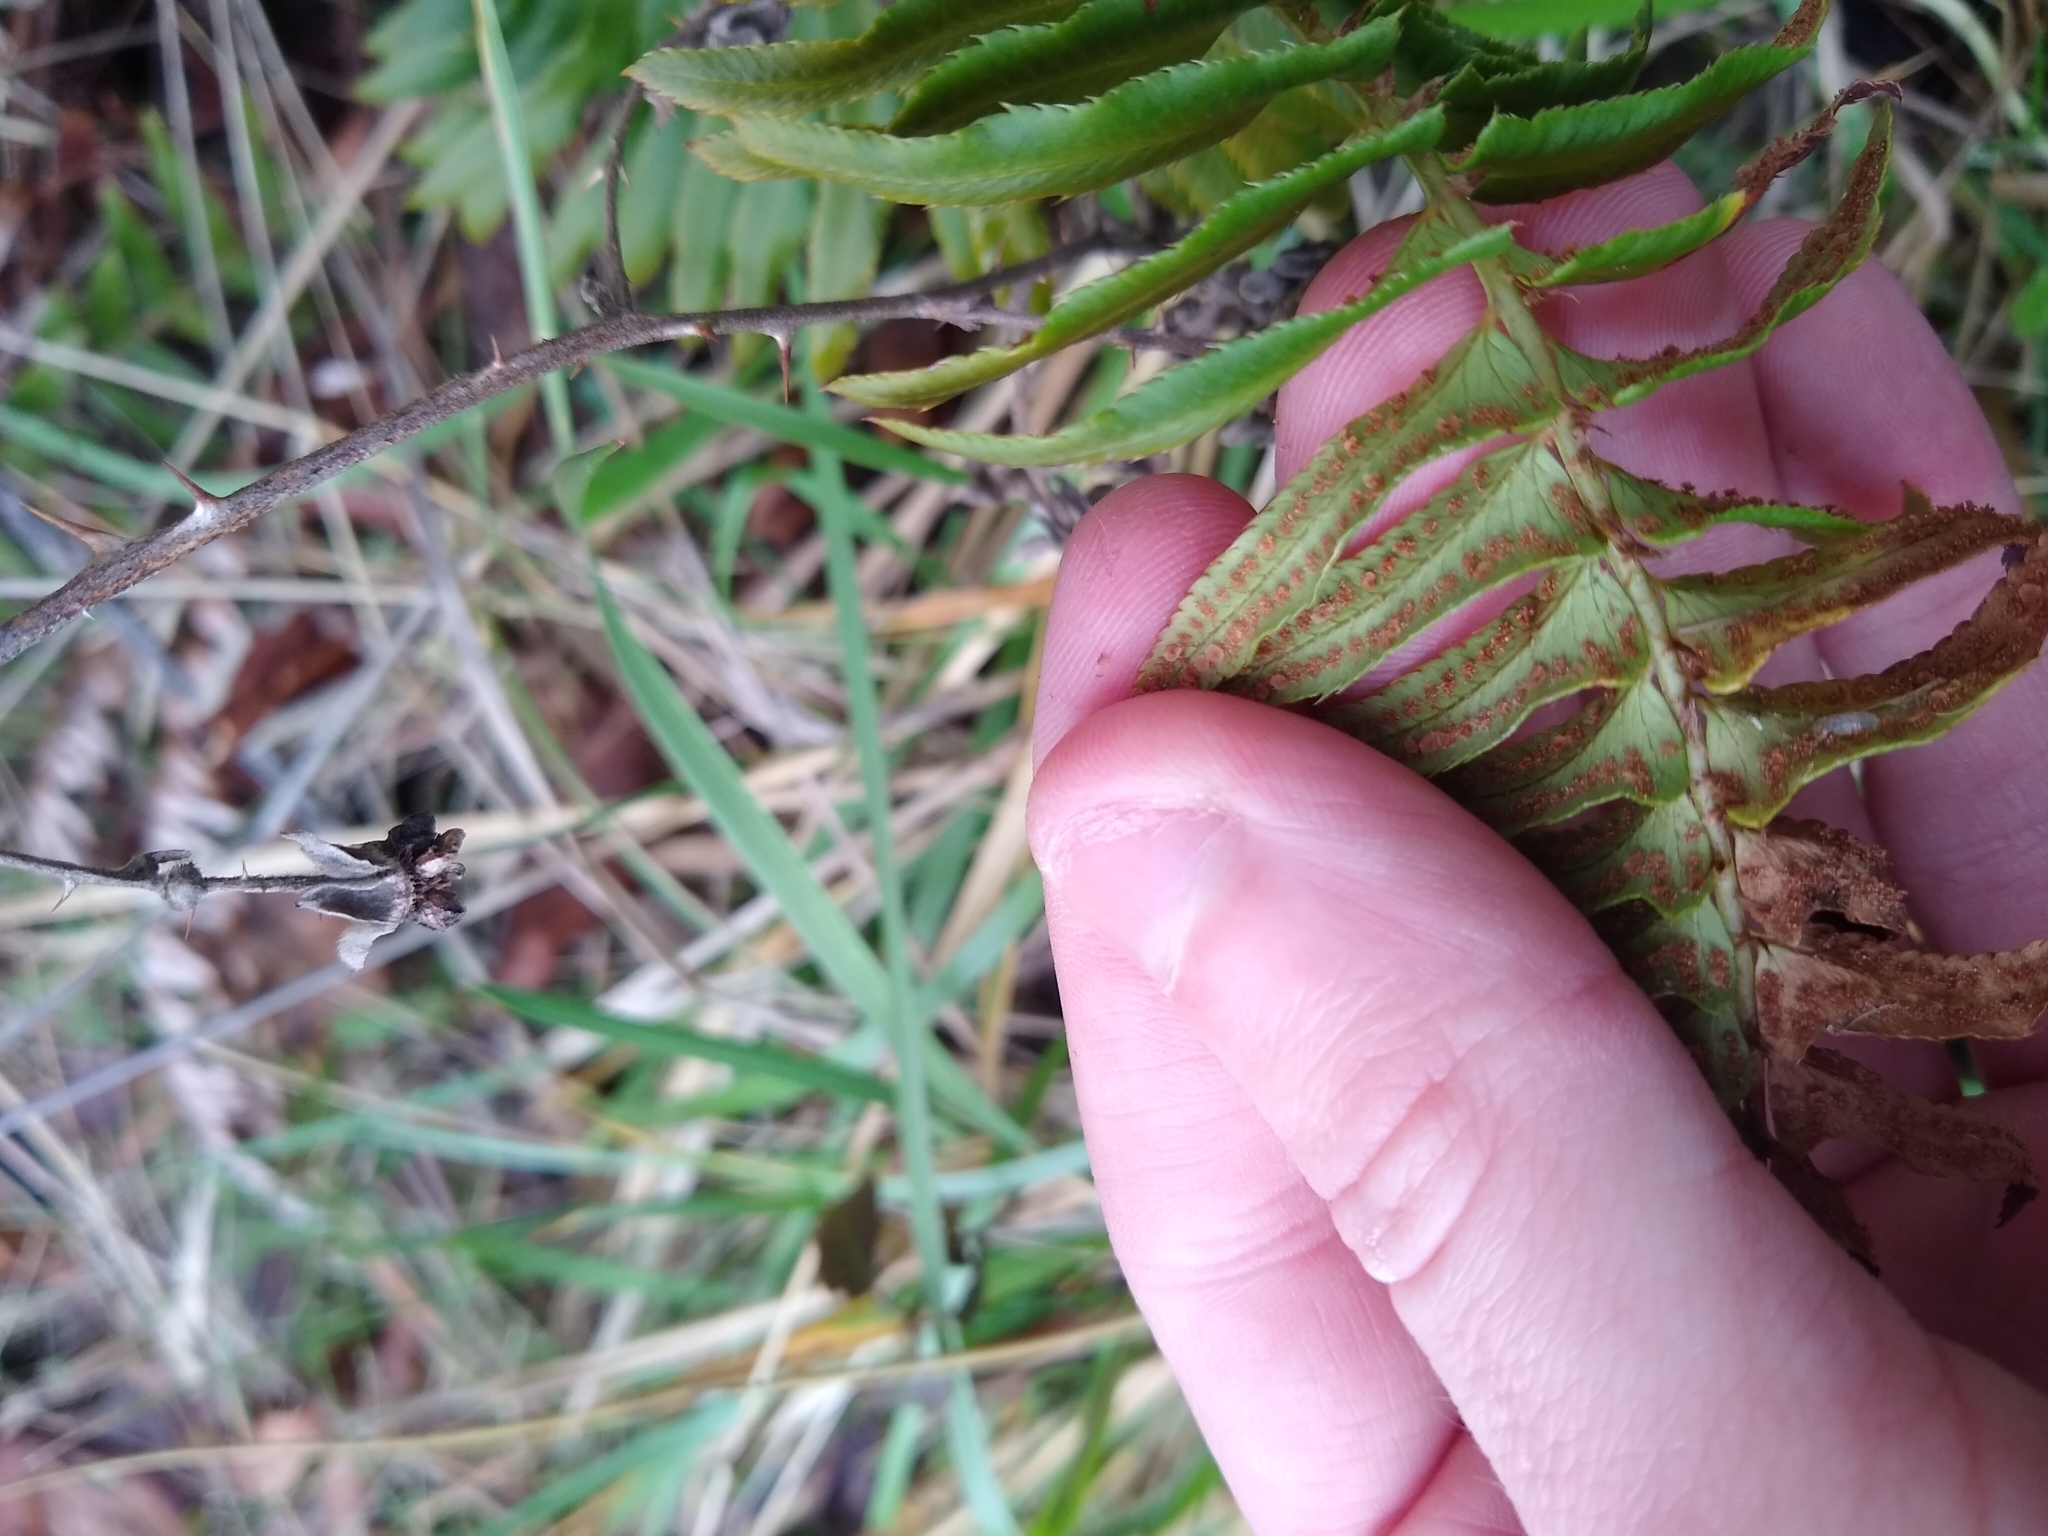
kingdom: Plantae
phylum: Tracheophyta
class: Polypodiopsida
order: Polypodiales
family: Dryopteridaceae
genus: Polystichum
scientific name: Polystichum munitum
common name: Western sword-fern
